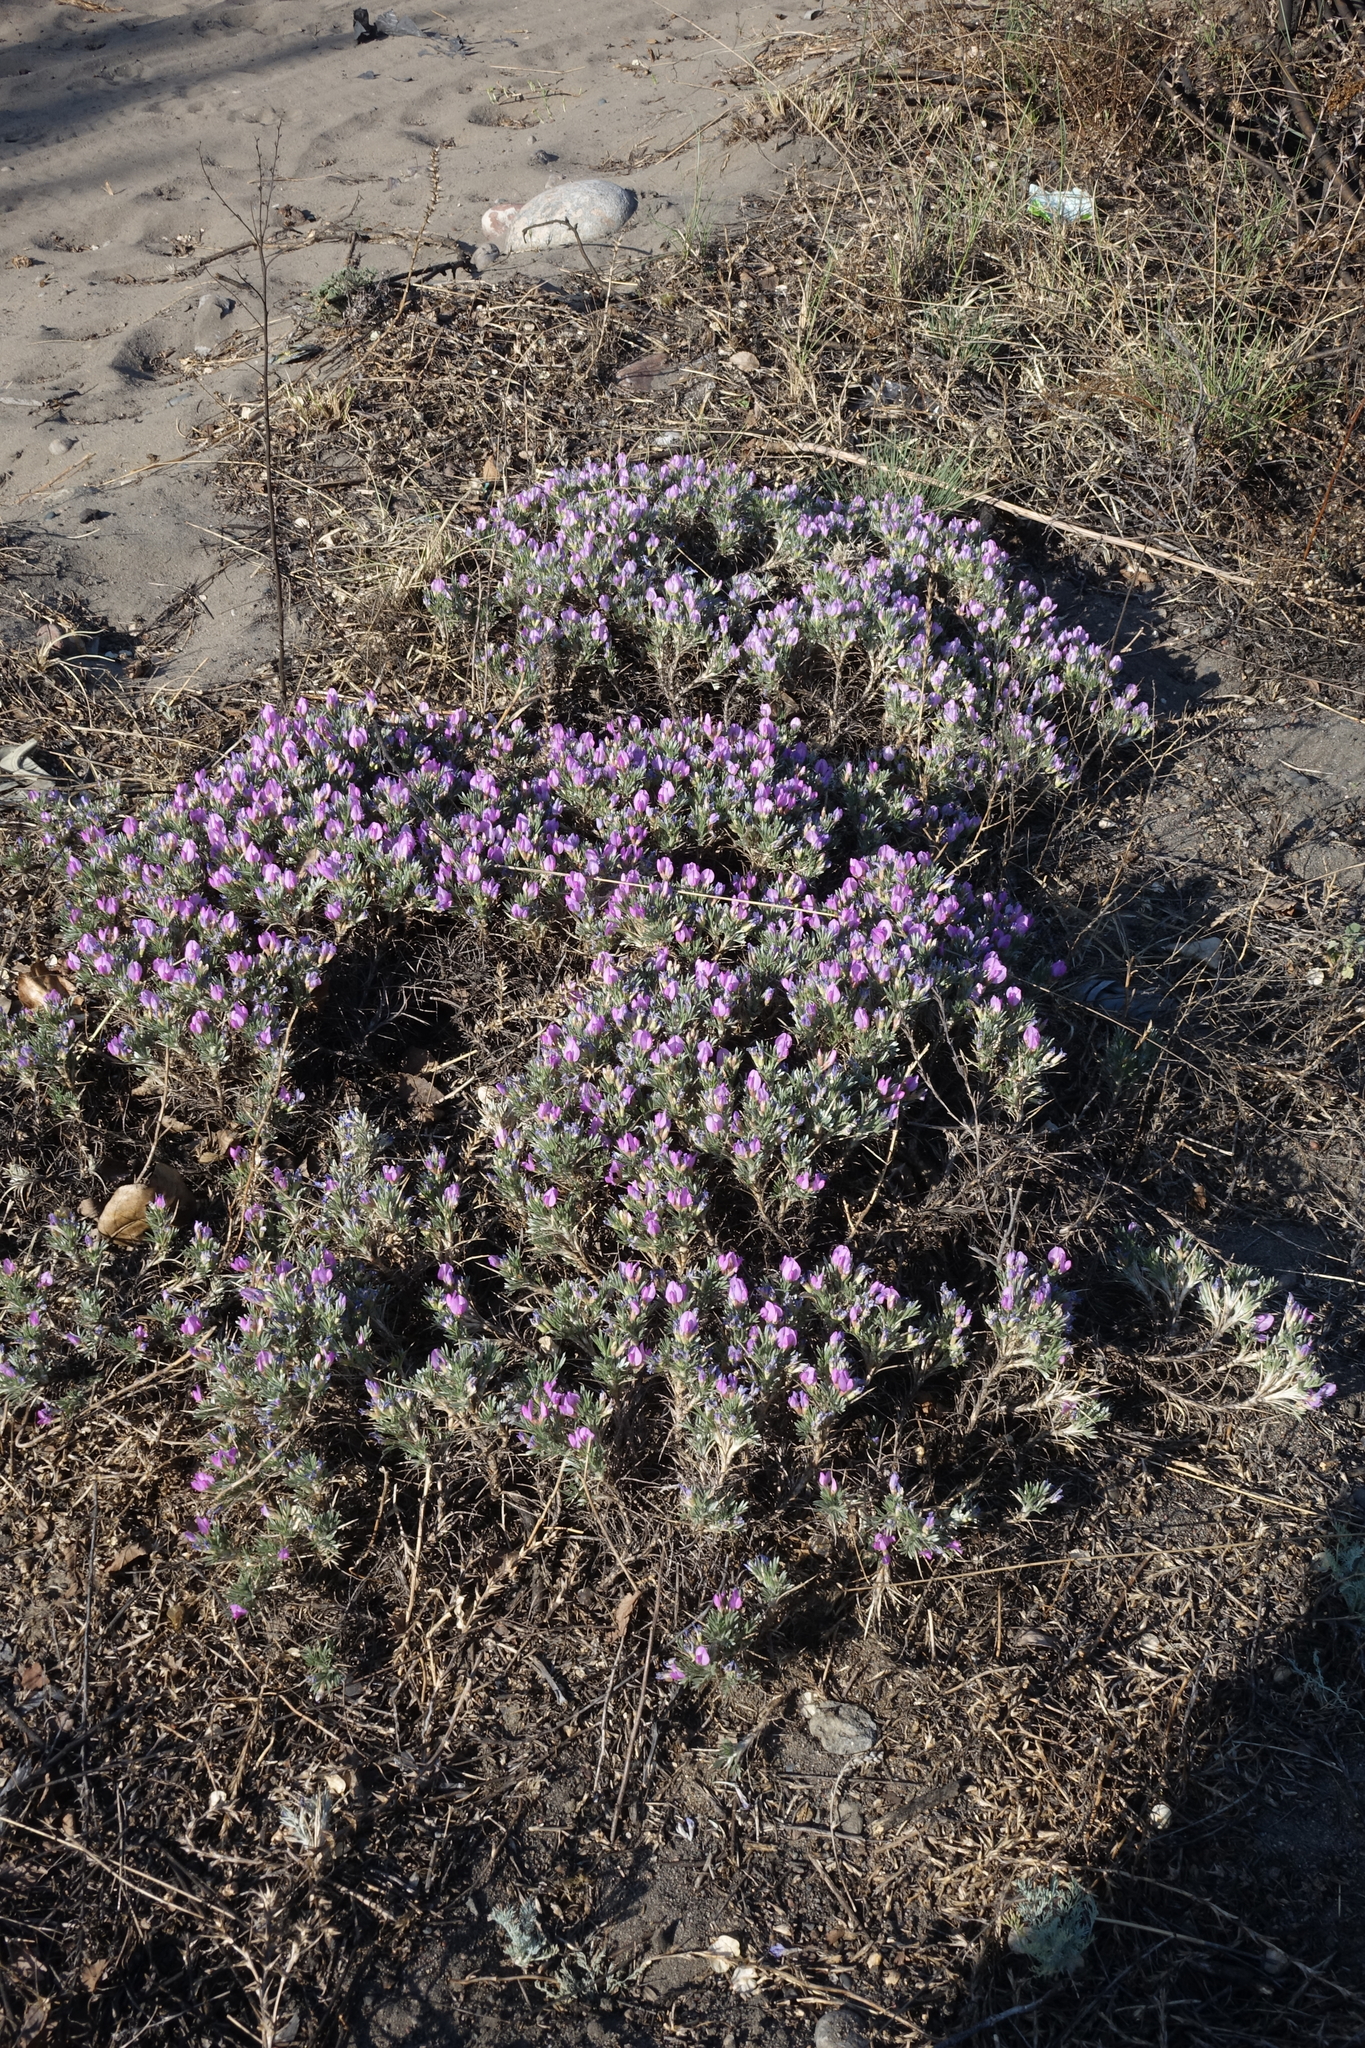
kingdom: Plantae
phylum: Tracheophyta
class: Magnoliopsida
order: Fabales
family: Fabaceae
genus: Oxytropis
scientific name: Oxytropis borissoviae
